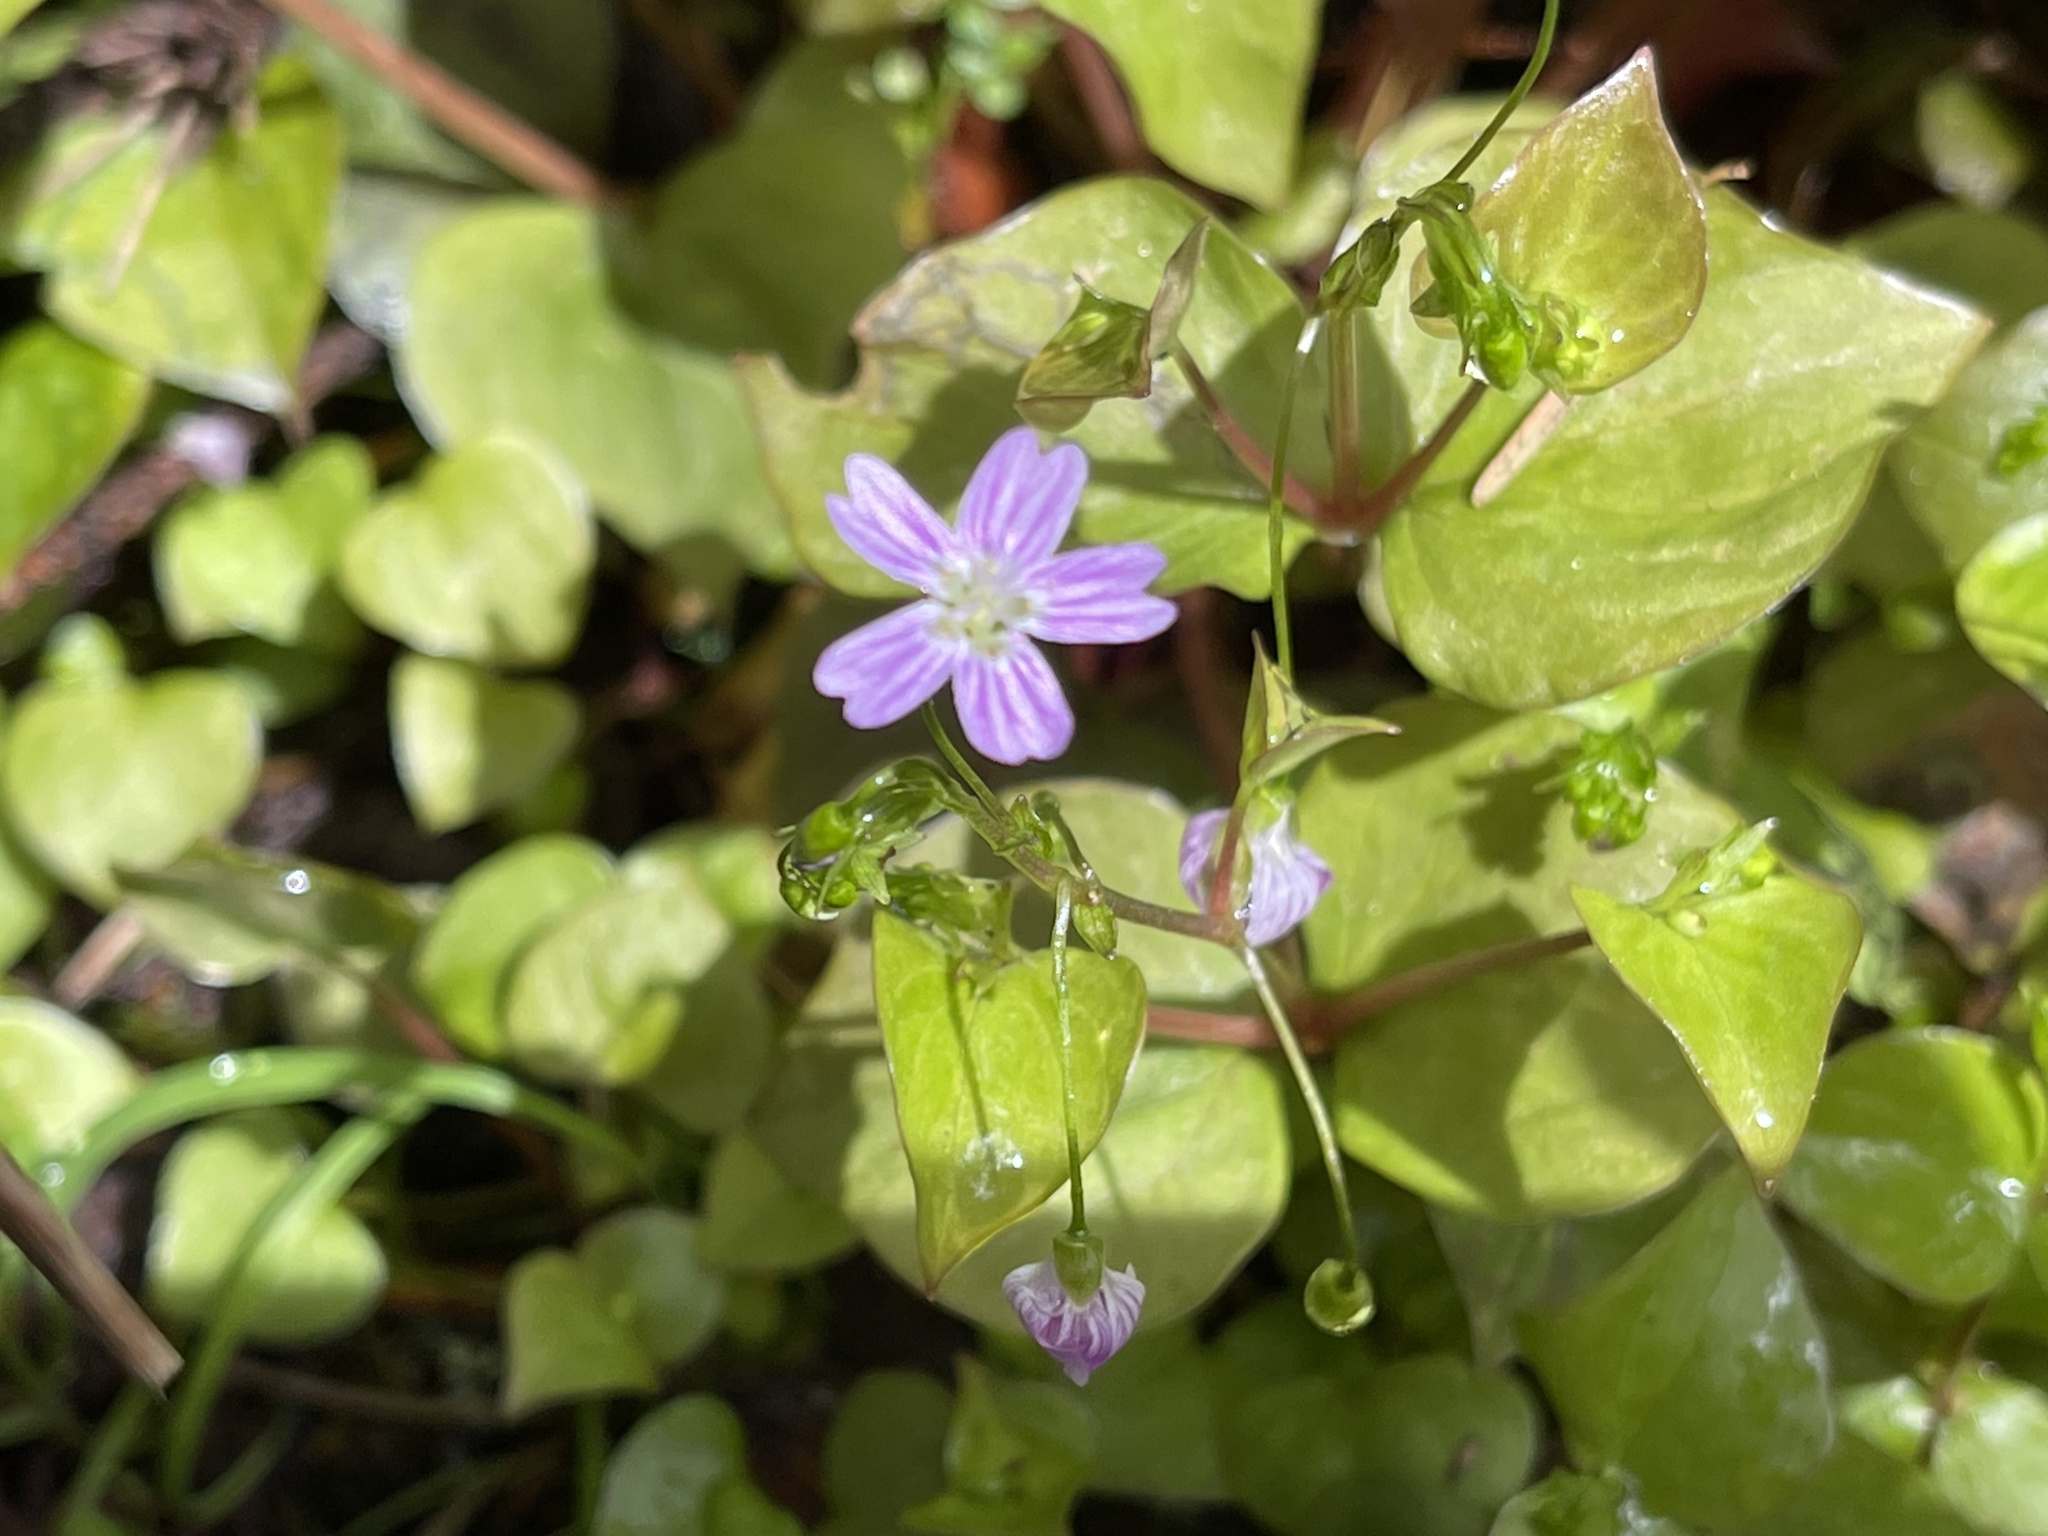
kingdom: Plantae
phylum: Tracheophyta
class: Magnoliopsida
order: Caryophyllales
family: Montiaceae
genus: Claytonia
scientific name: Claytonia sibirica
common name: Pink purslane
